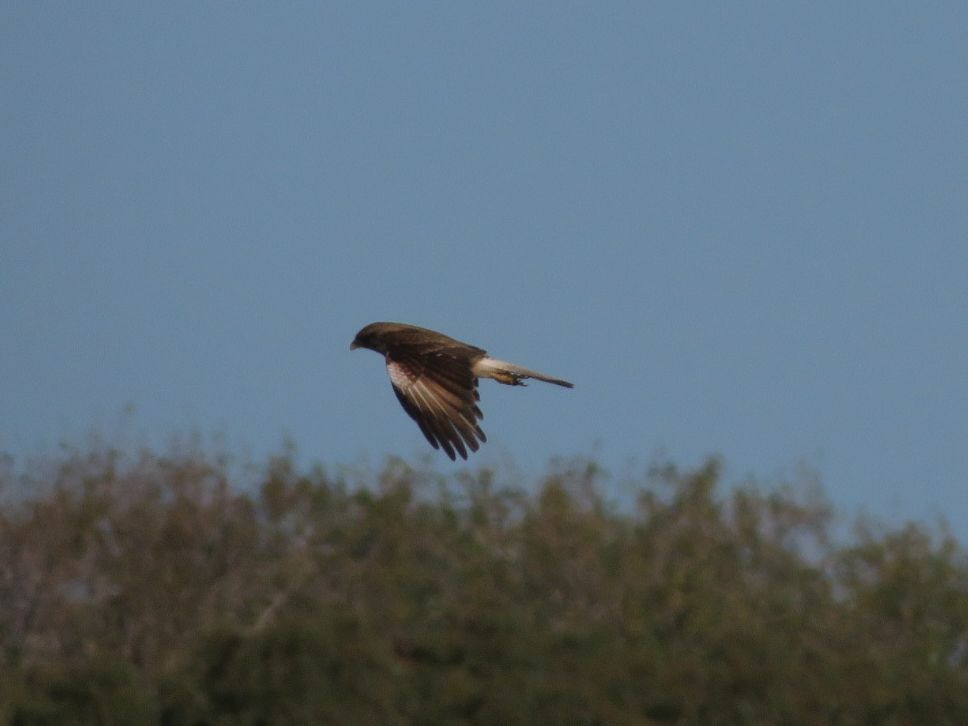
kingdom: Animalia
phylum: Chordata
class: Aves
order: Falconiformes
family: Falconidae
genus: Daptrius
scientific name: Daptrius
